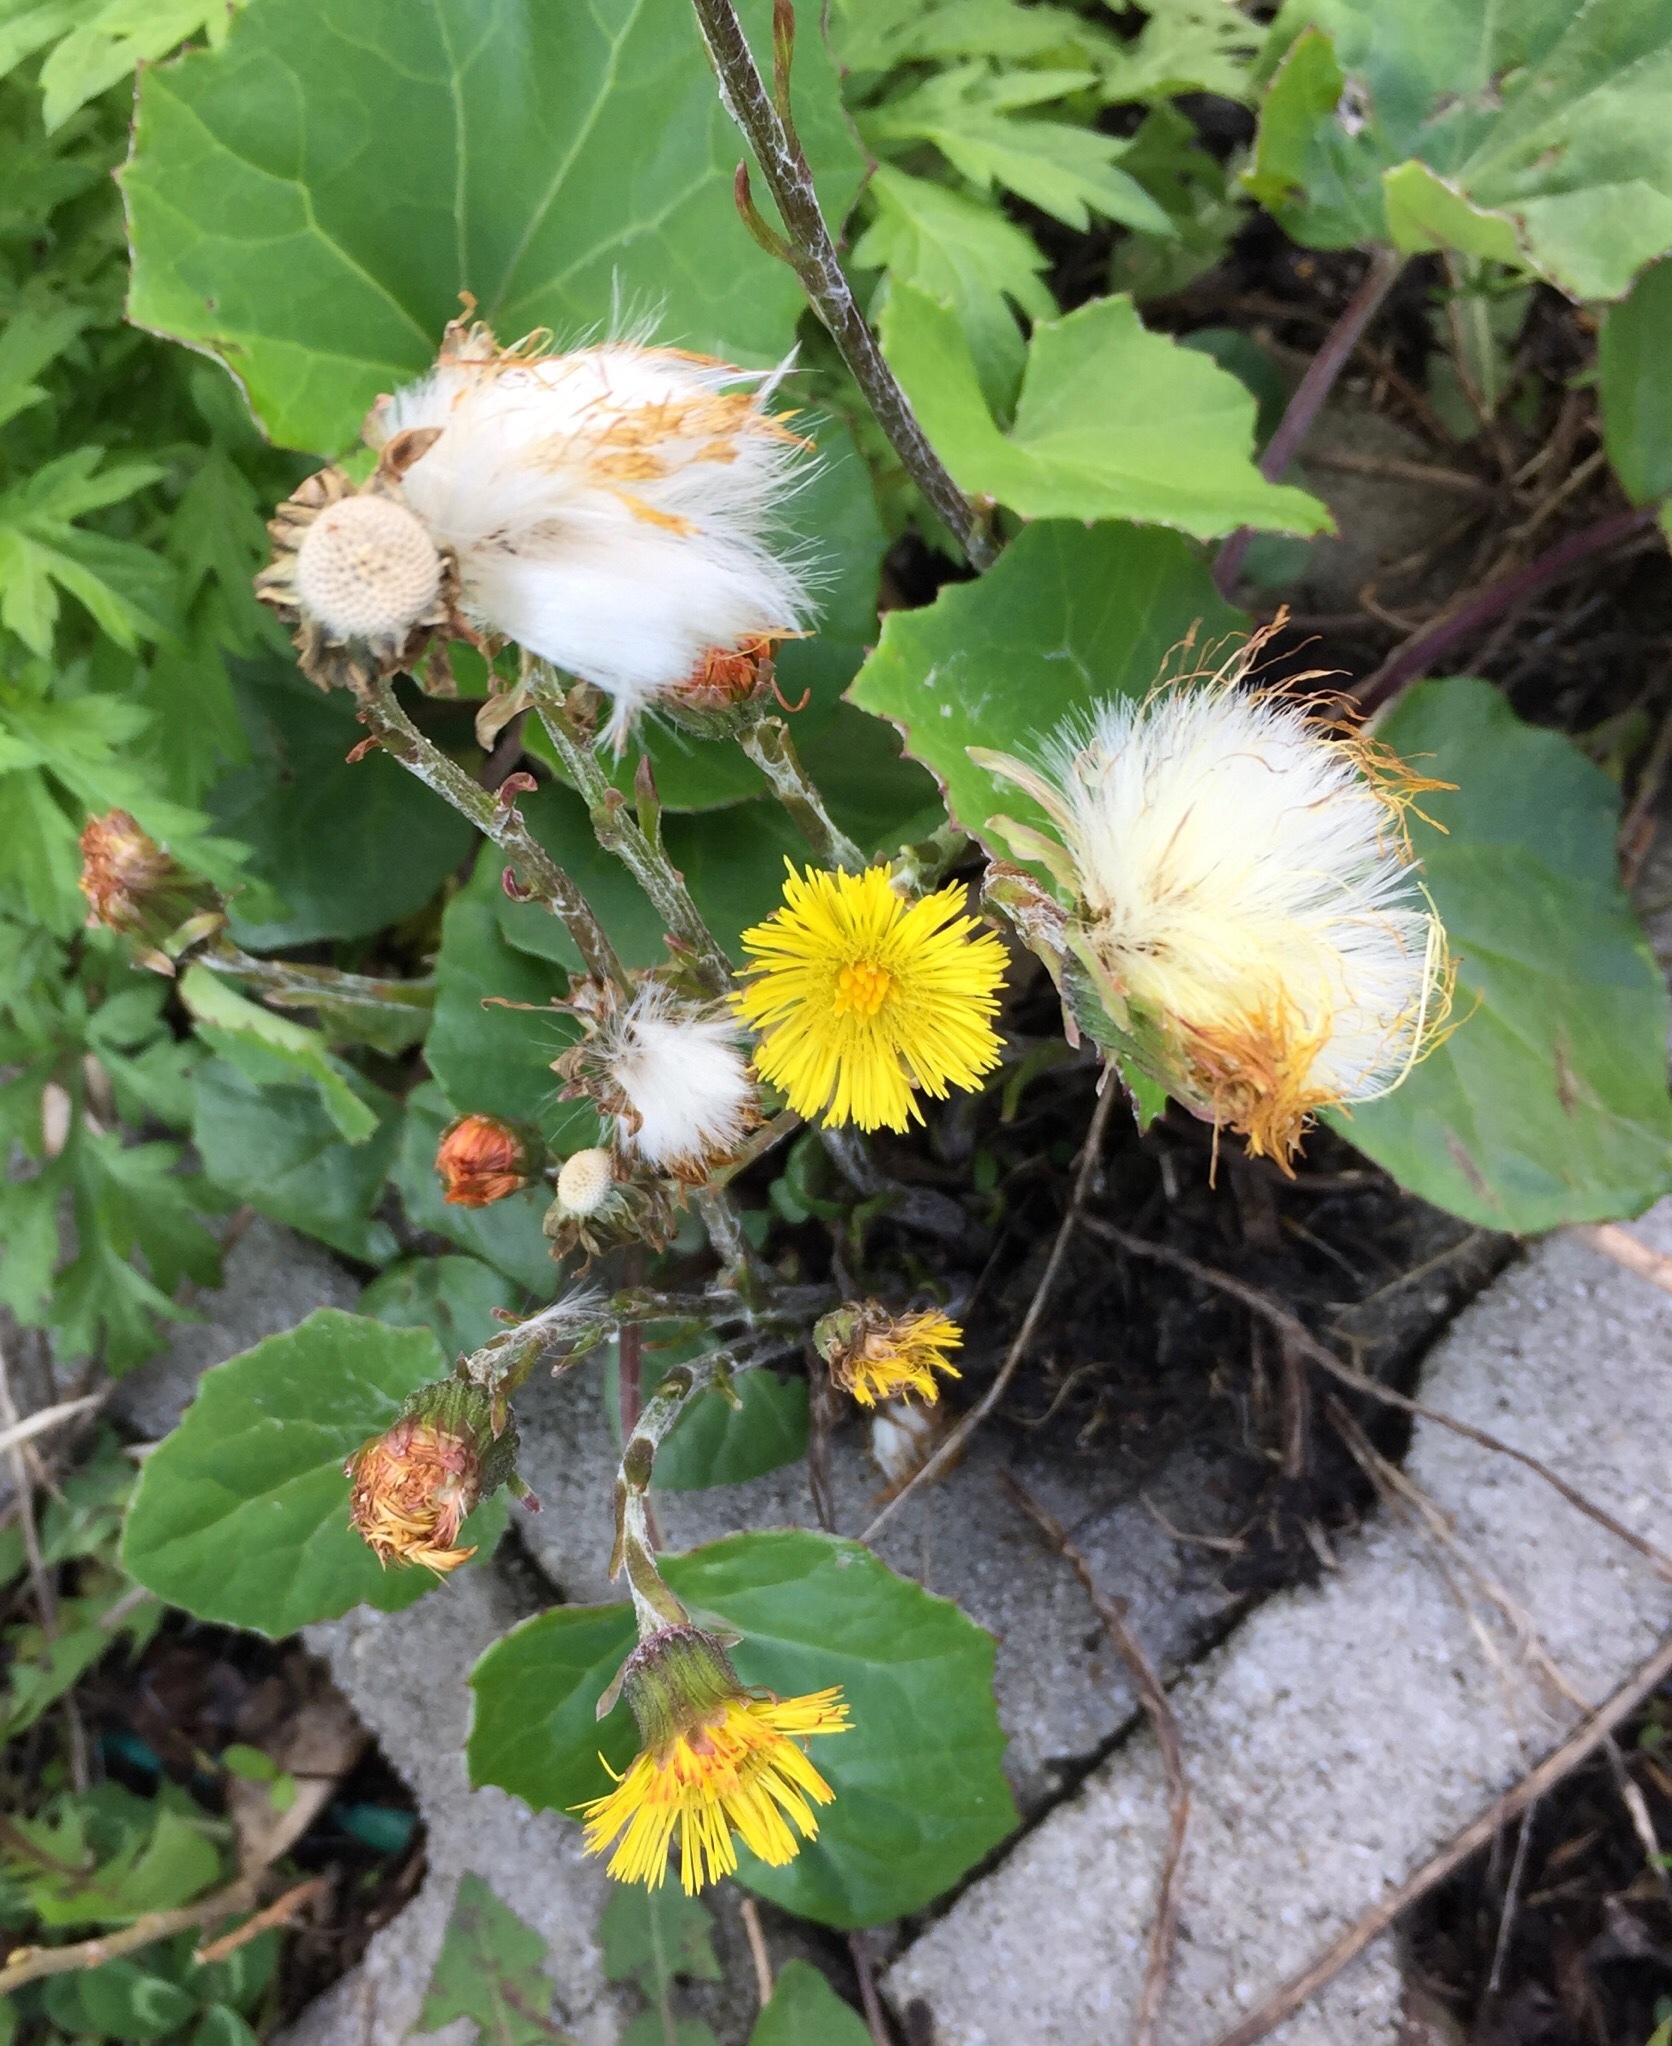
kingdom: Plantae
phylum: Tracheophyta
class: Magnoliopsida
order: Asterales
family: Asteraceae
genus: Tussilago
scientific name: Tussilago farfara
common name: Coltsfoot
